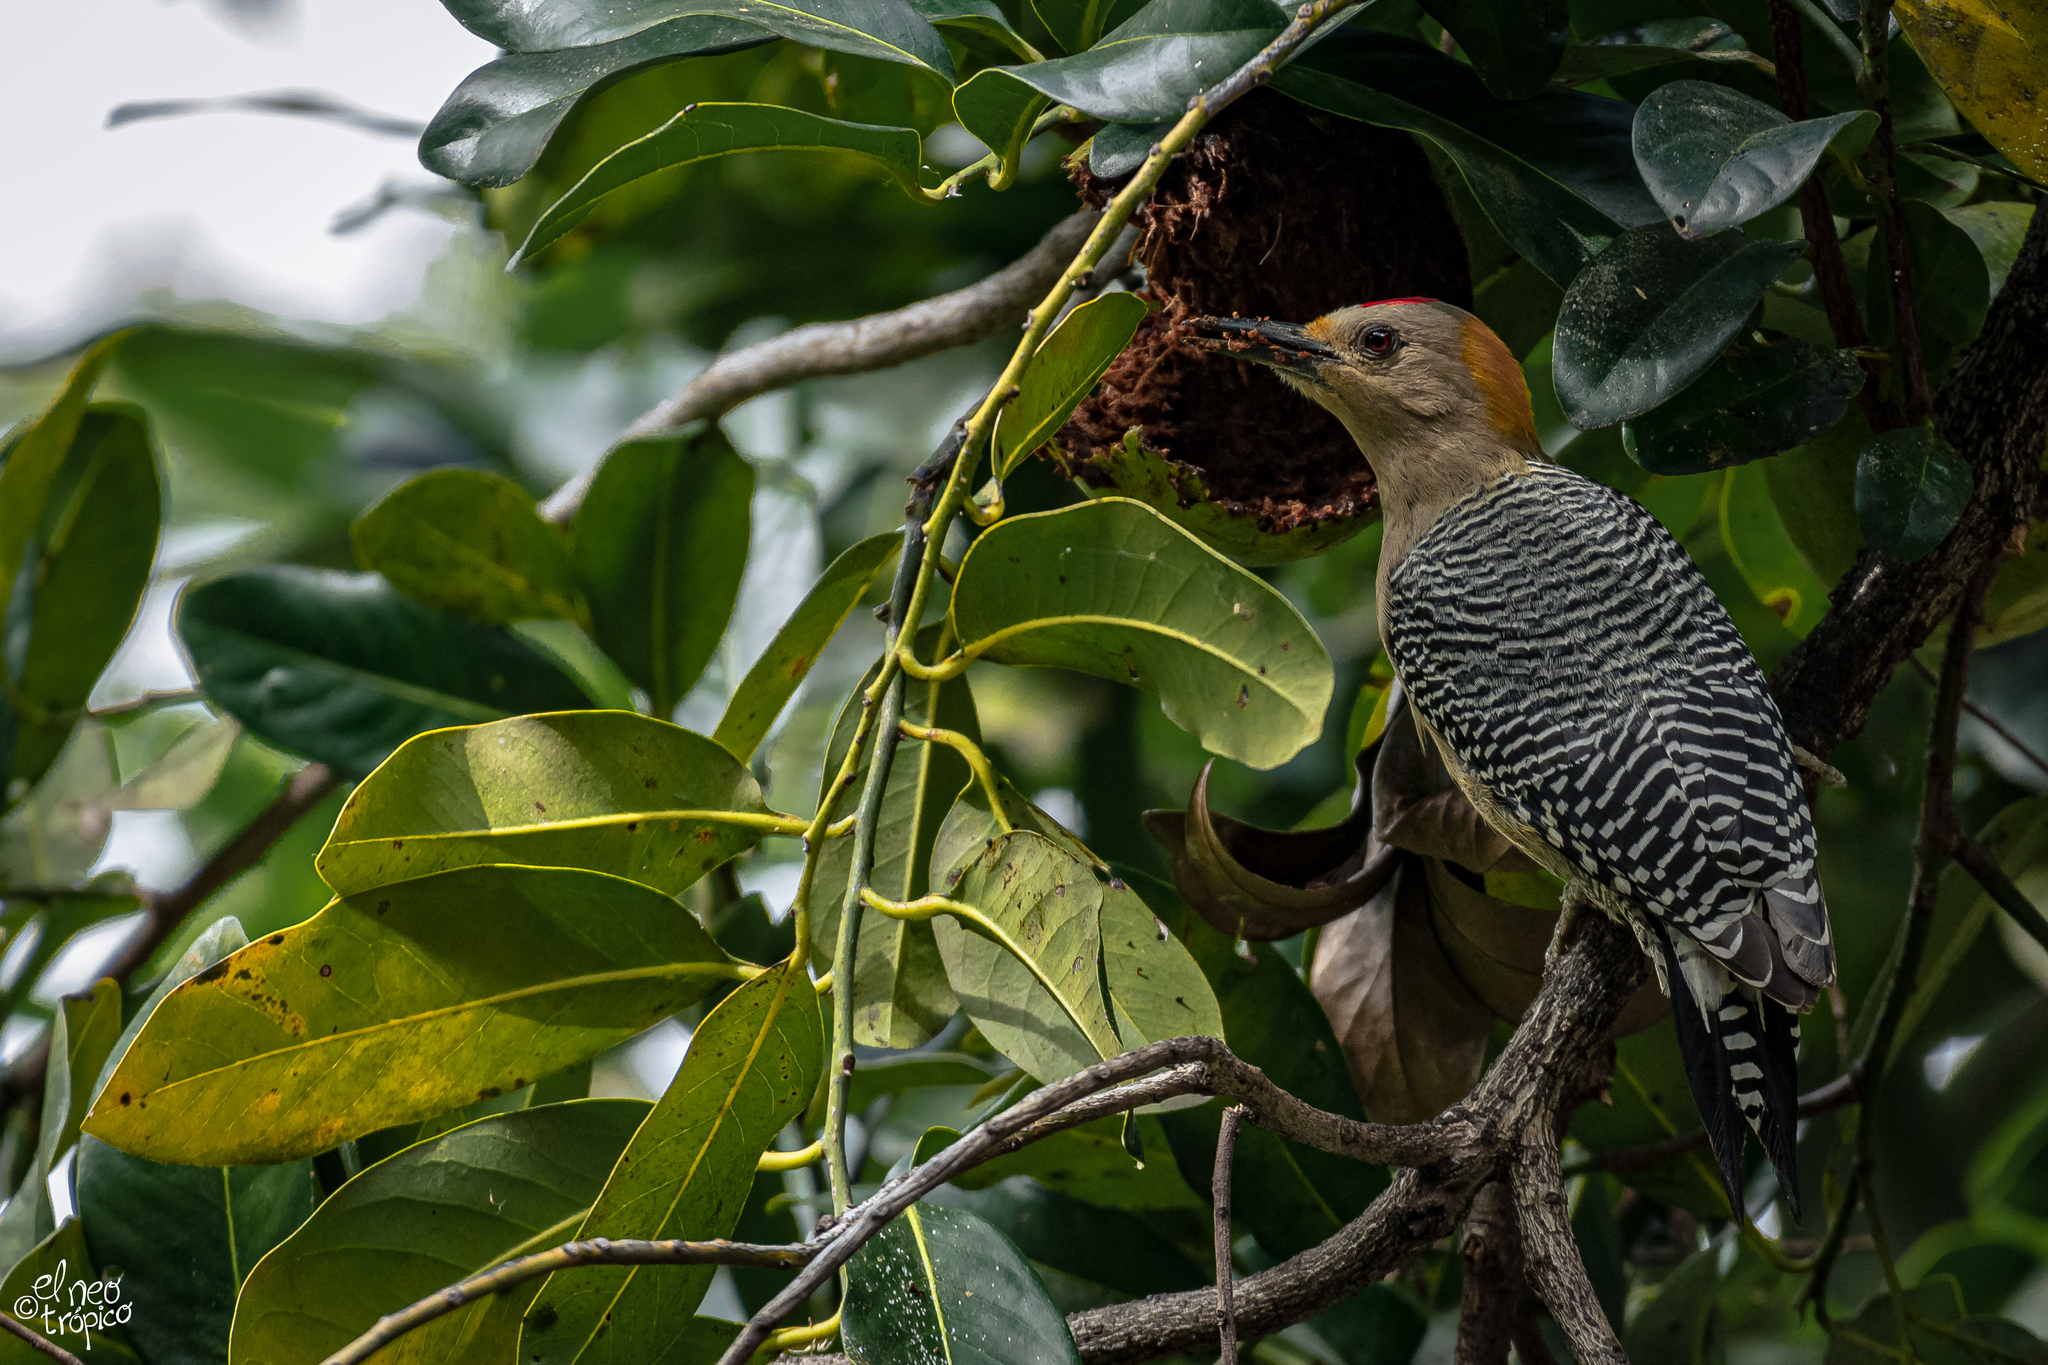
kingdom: Animalia
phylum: Chordata
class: Aves
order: Piciformes
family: Picidae
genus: Melanerpes
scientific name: Melanerpes aurifrons
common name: Golden-fronted woodpecker
